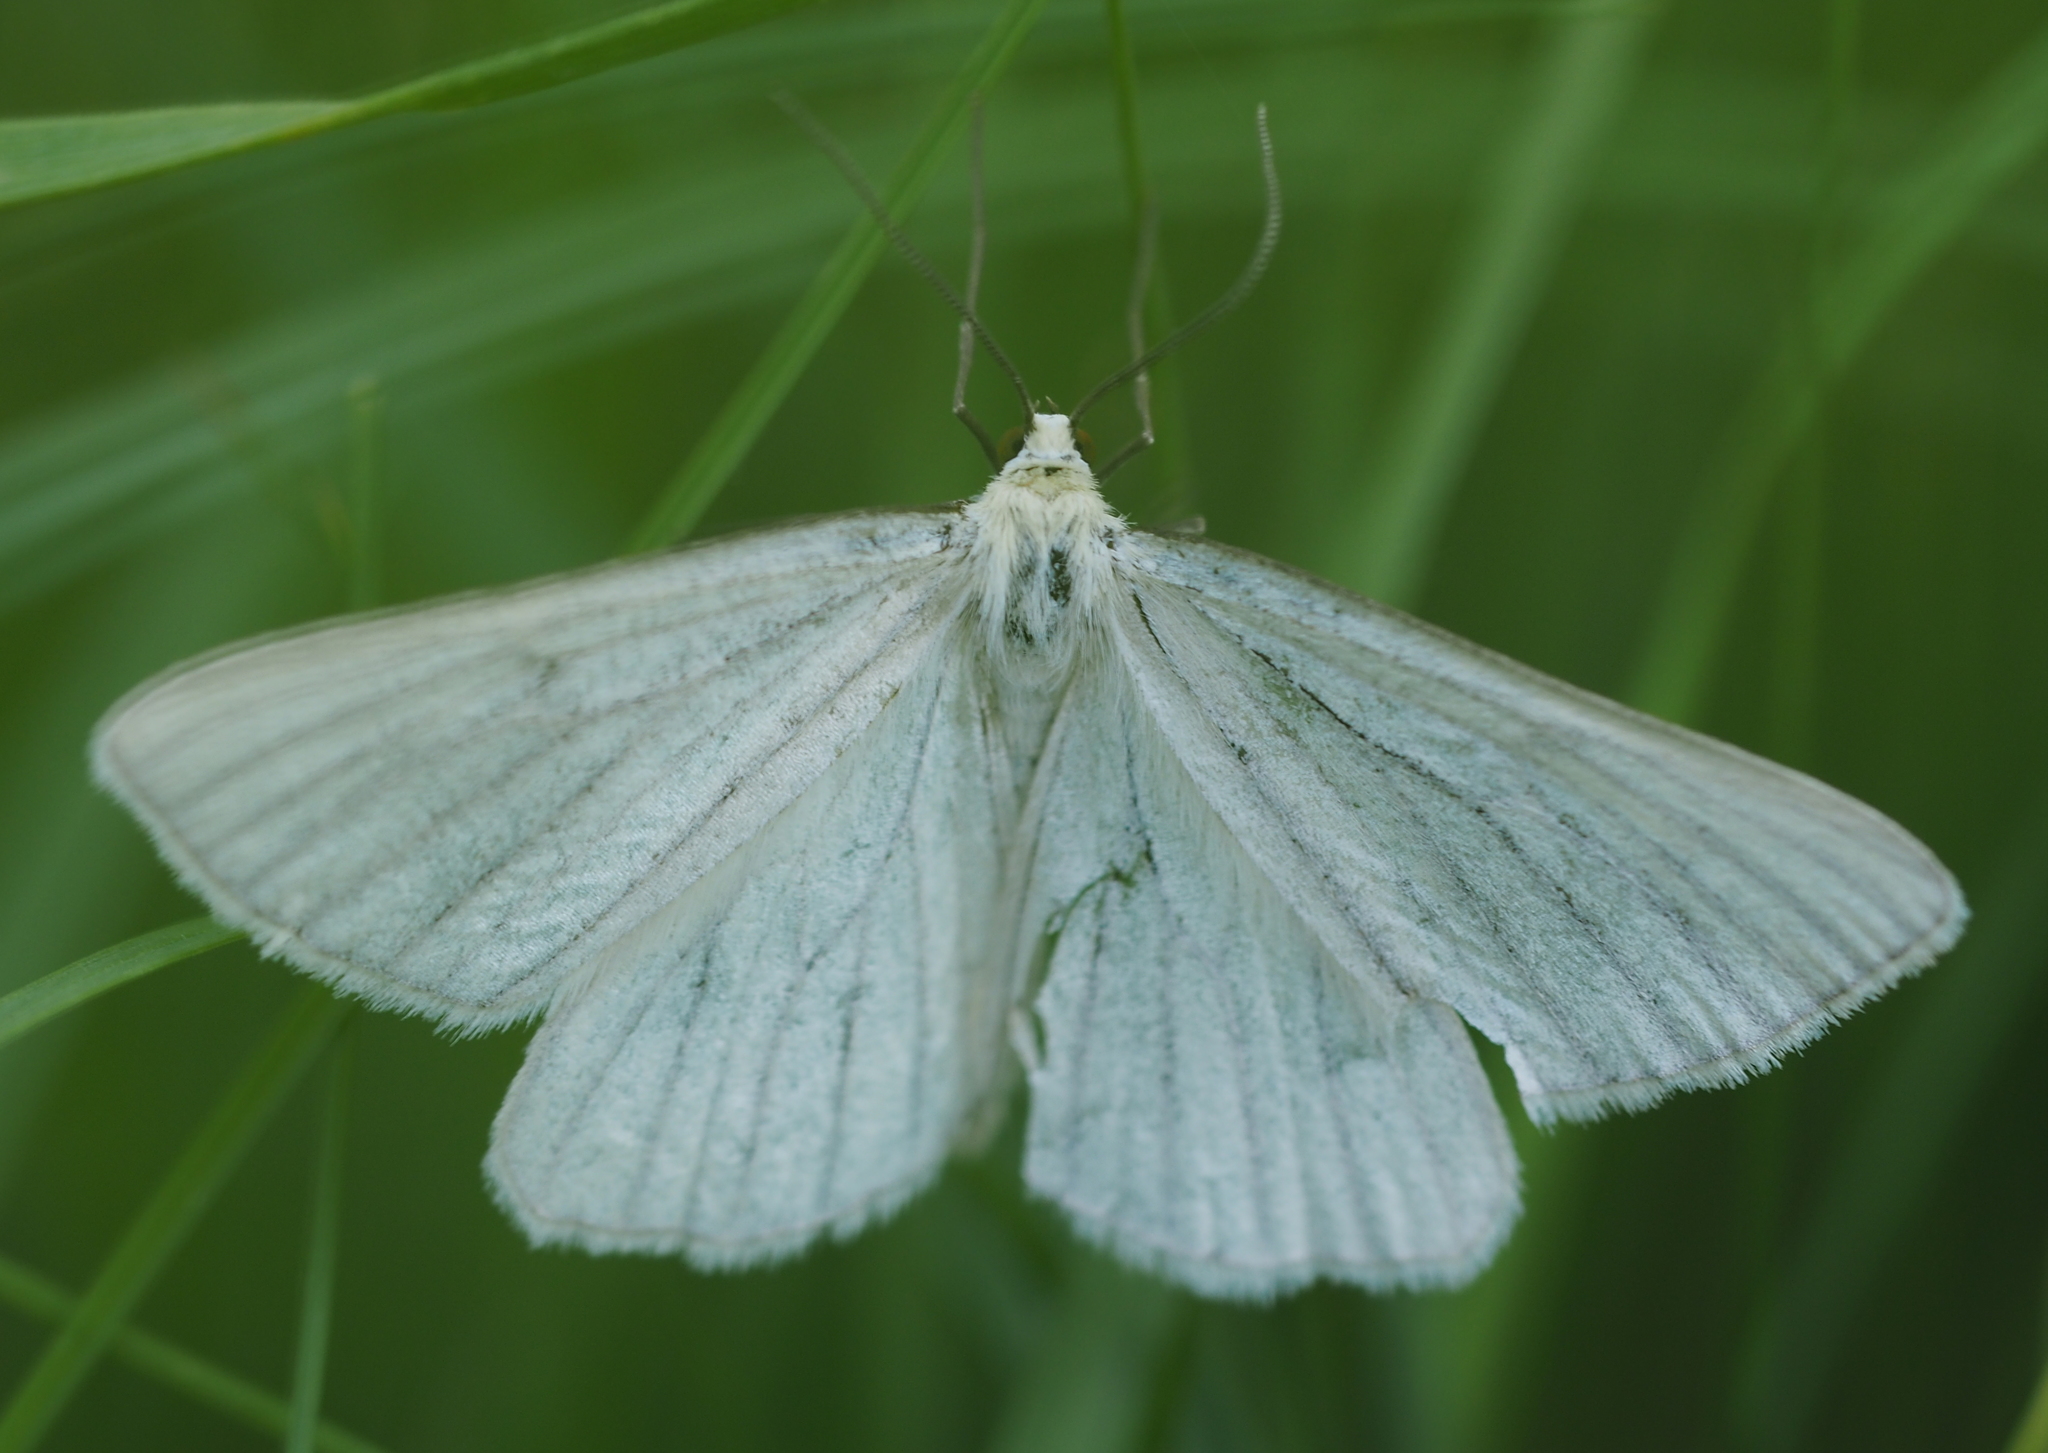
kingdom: Animalia
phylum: Arthropoda
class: Insecta
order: Lepidoptera
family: Geometridae
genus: Siona
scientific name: Siona lineata
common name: Black-veined moth
